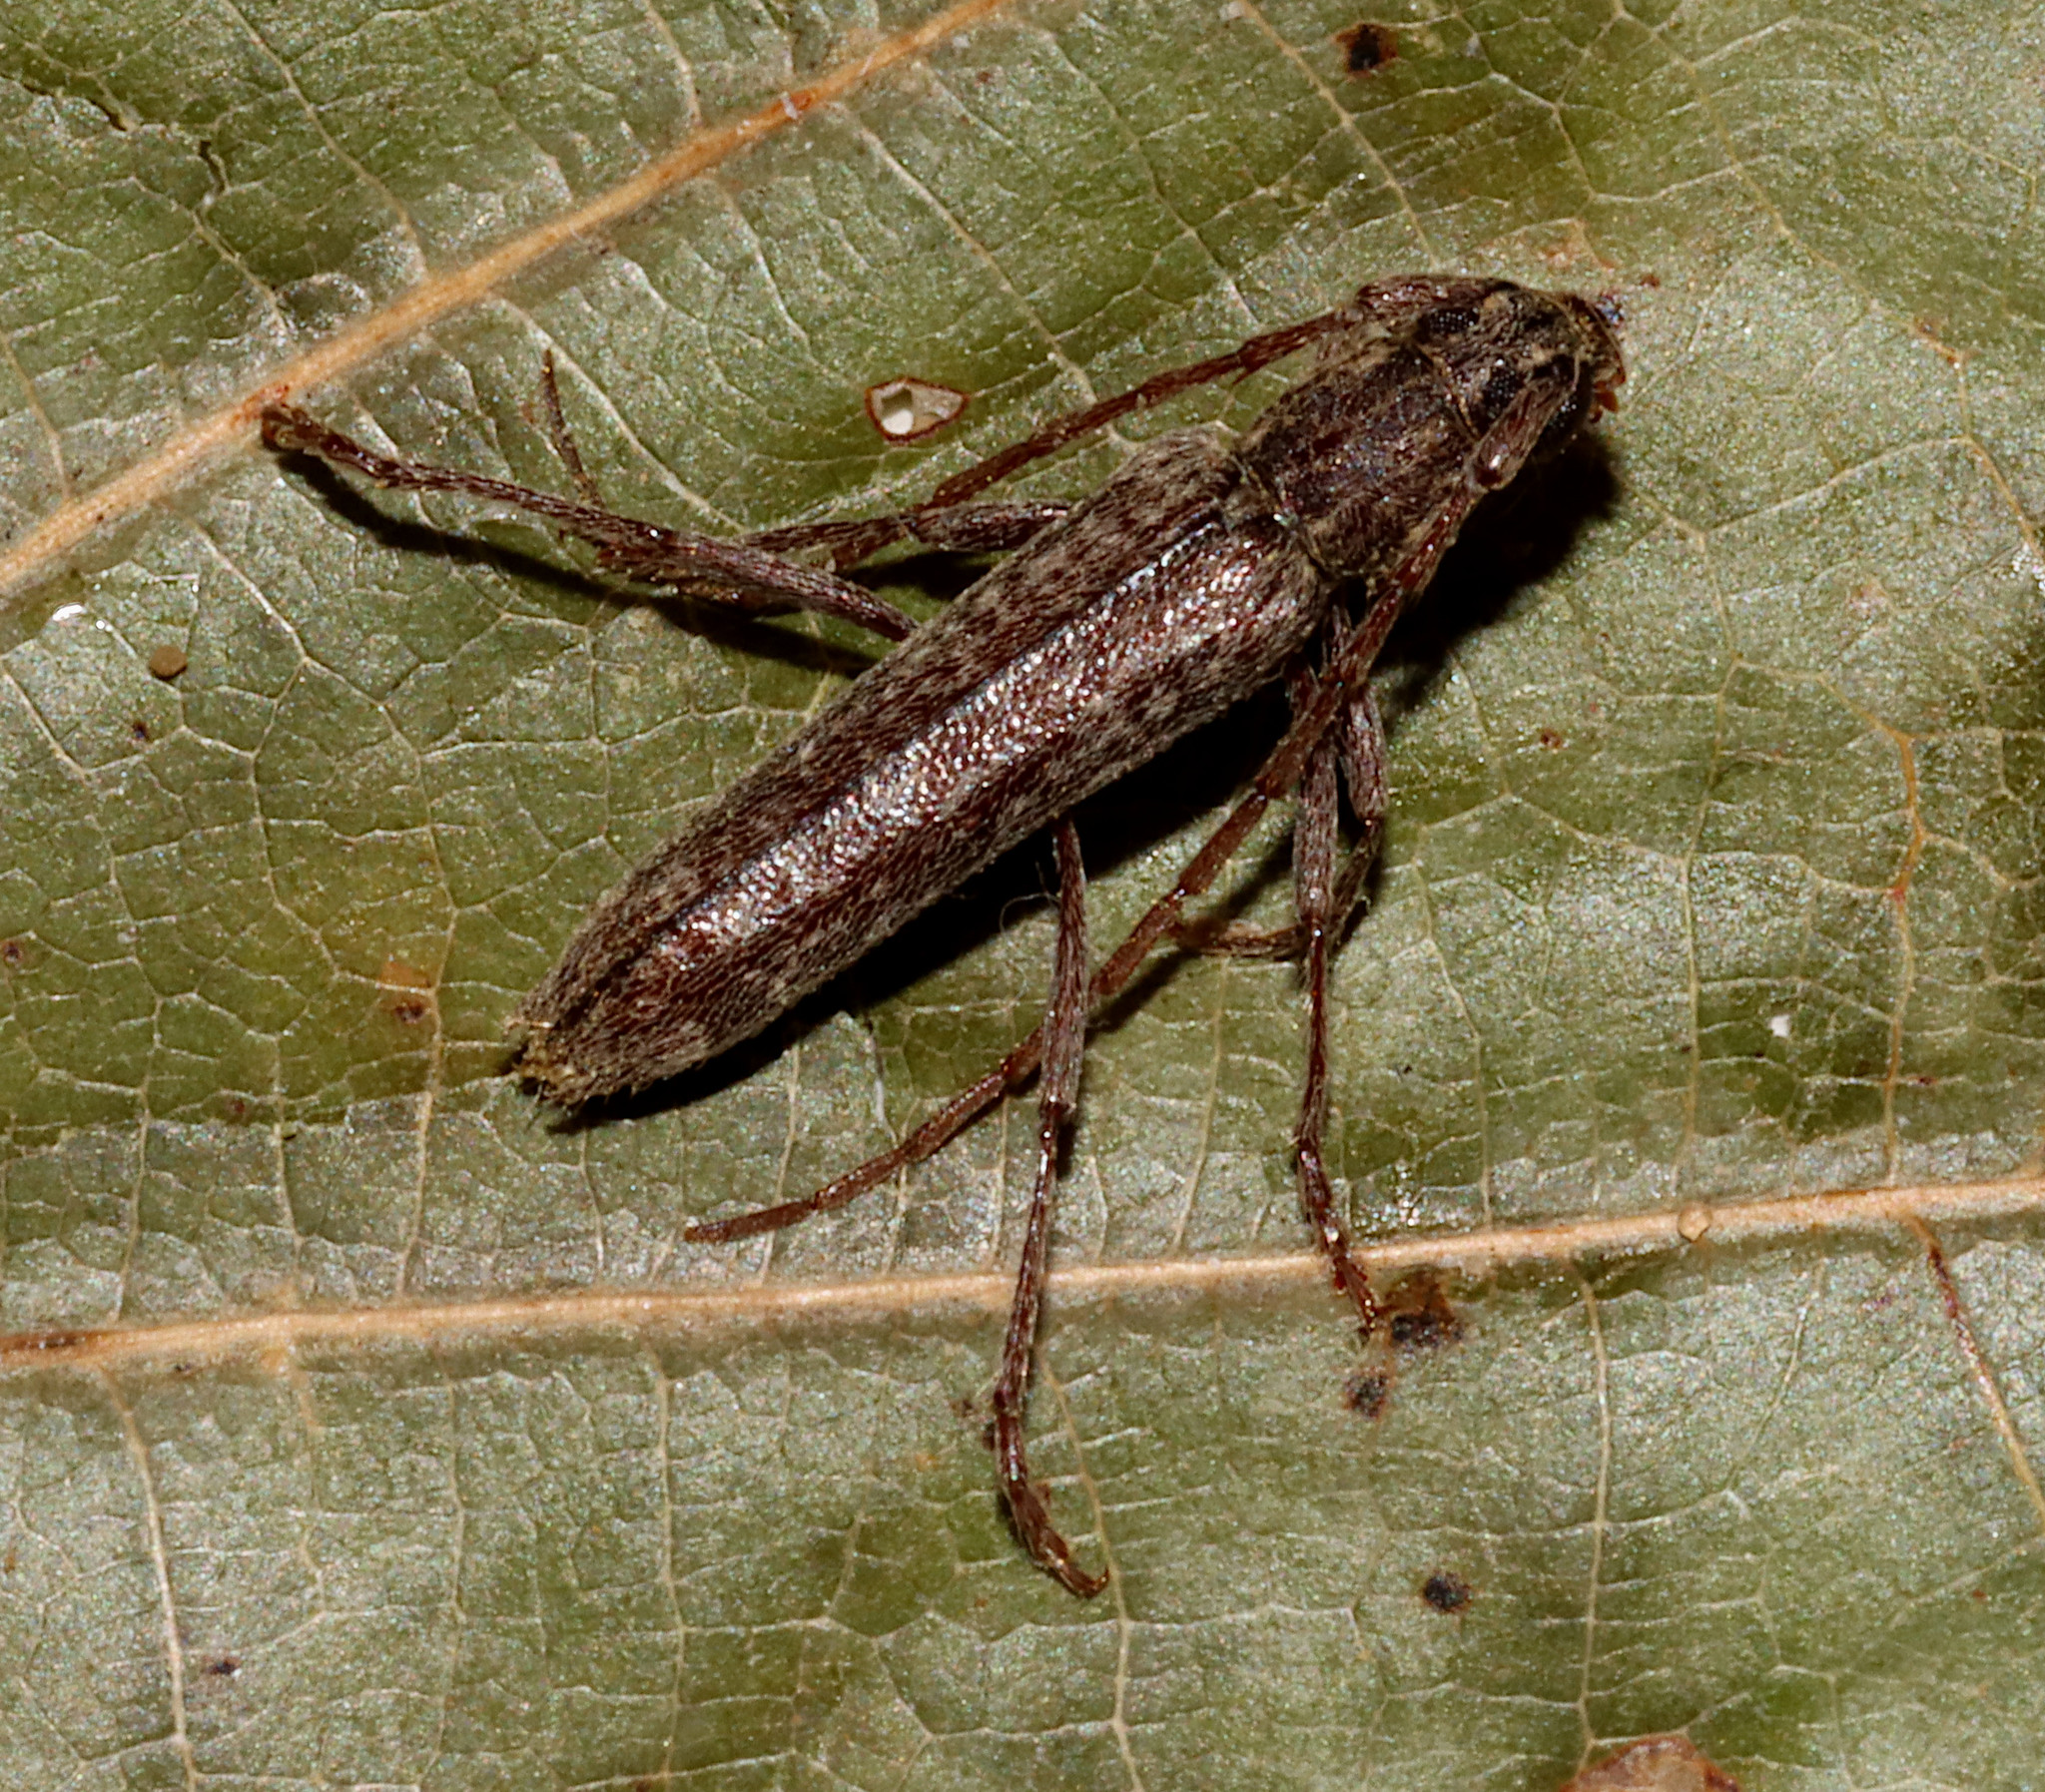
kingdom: Animalia
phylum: Arthropoda
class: Insecta
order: Coleoptera
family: Cerambycidae
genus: Anelaphus
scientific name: Anelaphus villosus
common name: Twig pruner
